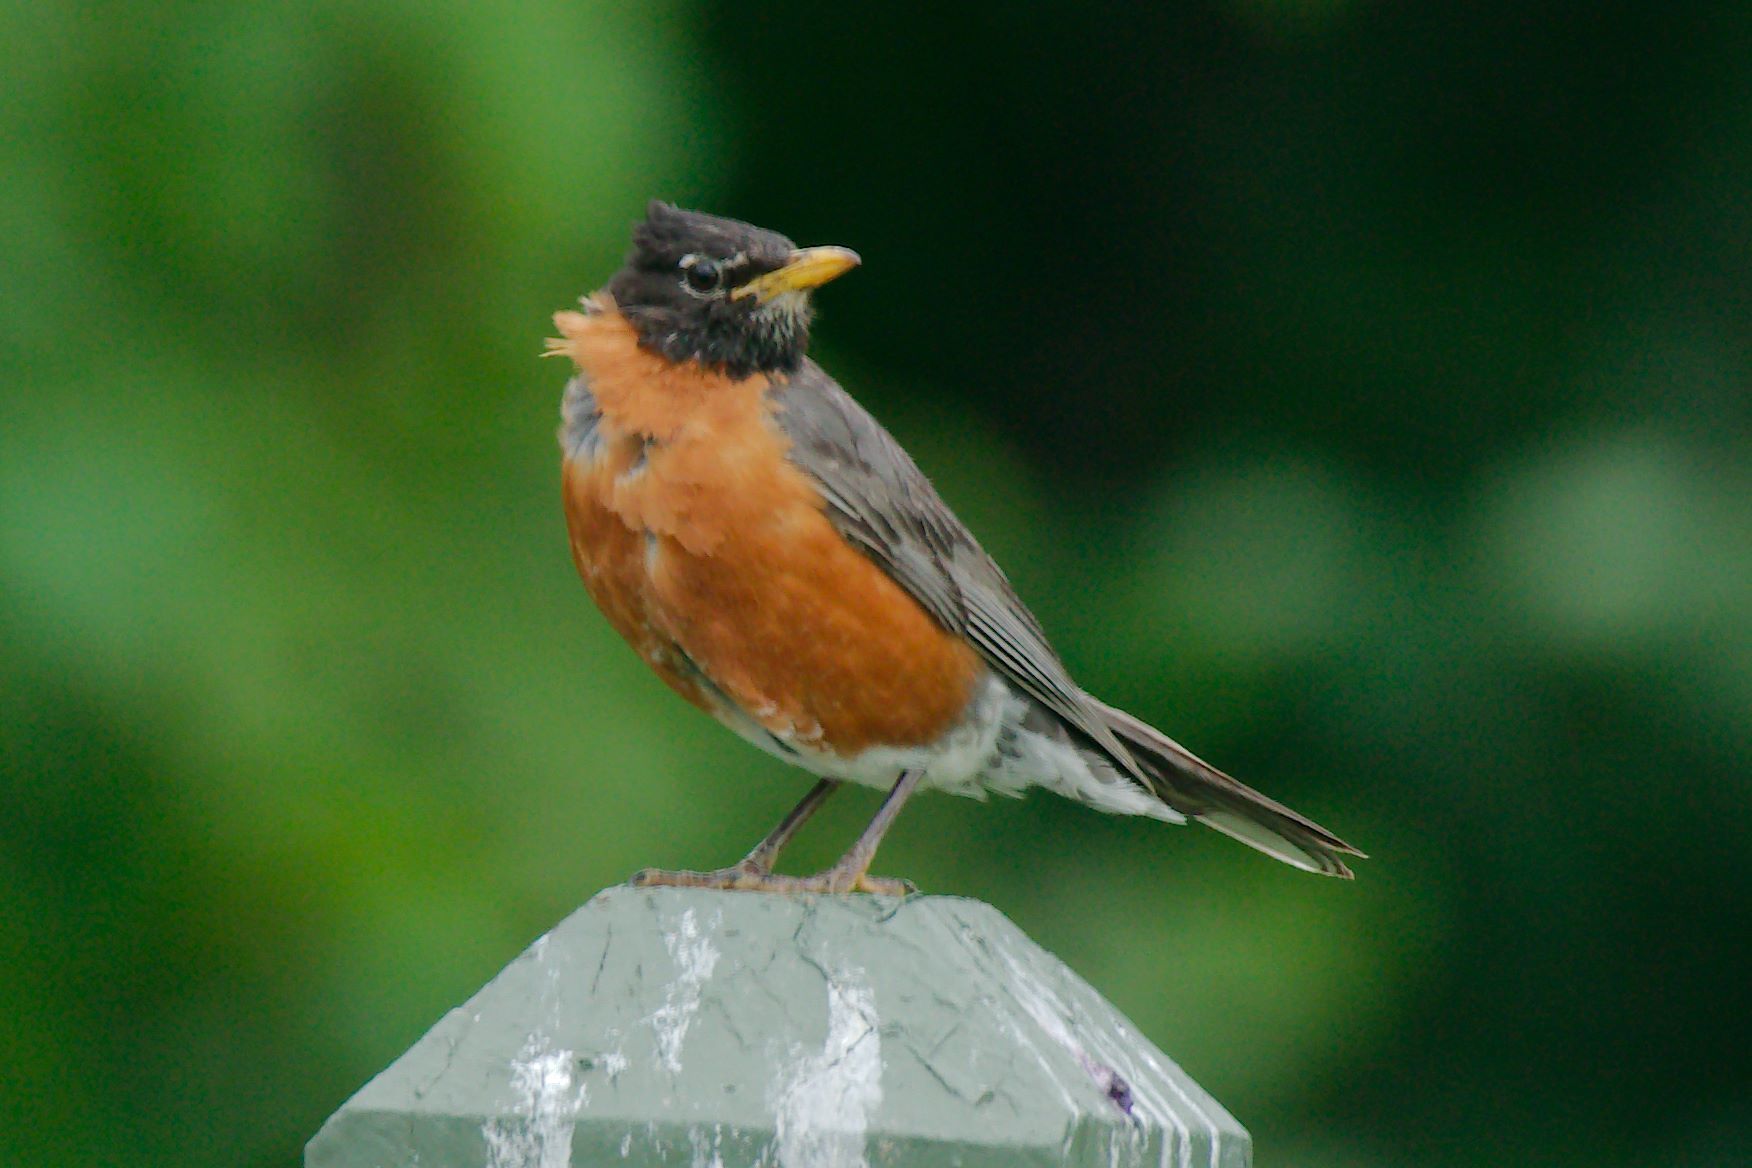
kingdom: Animalia
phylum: Chordata
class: Aves
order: Passeriformes
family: Turdidae
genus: Turdus
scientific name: Turdus migratorius
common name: American robin
